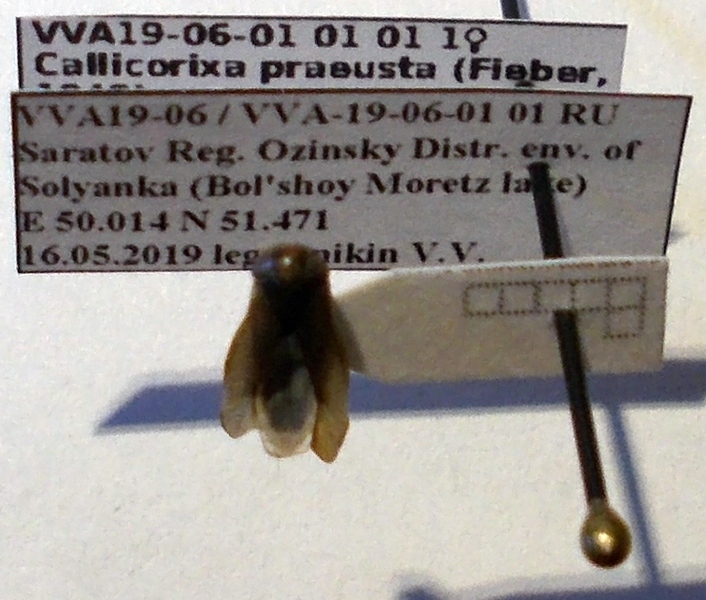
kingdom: Animalia
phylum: Arthropoda
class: Insecta
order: Hemiptera
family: Corixidae
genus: Callicorixa
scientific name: Callicorixa praeusta
